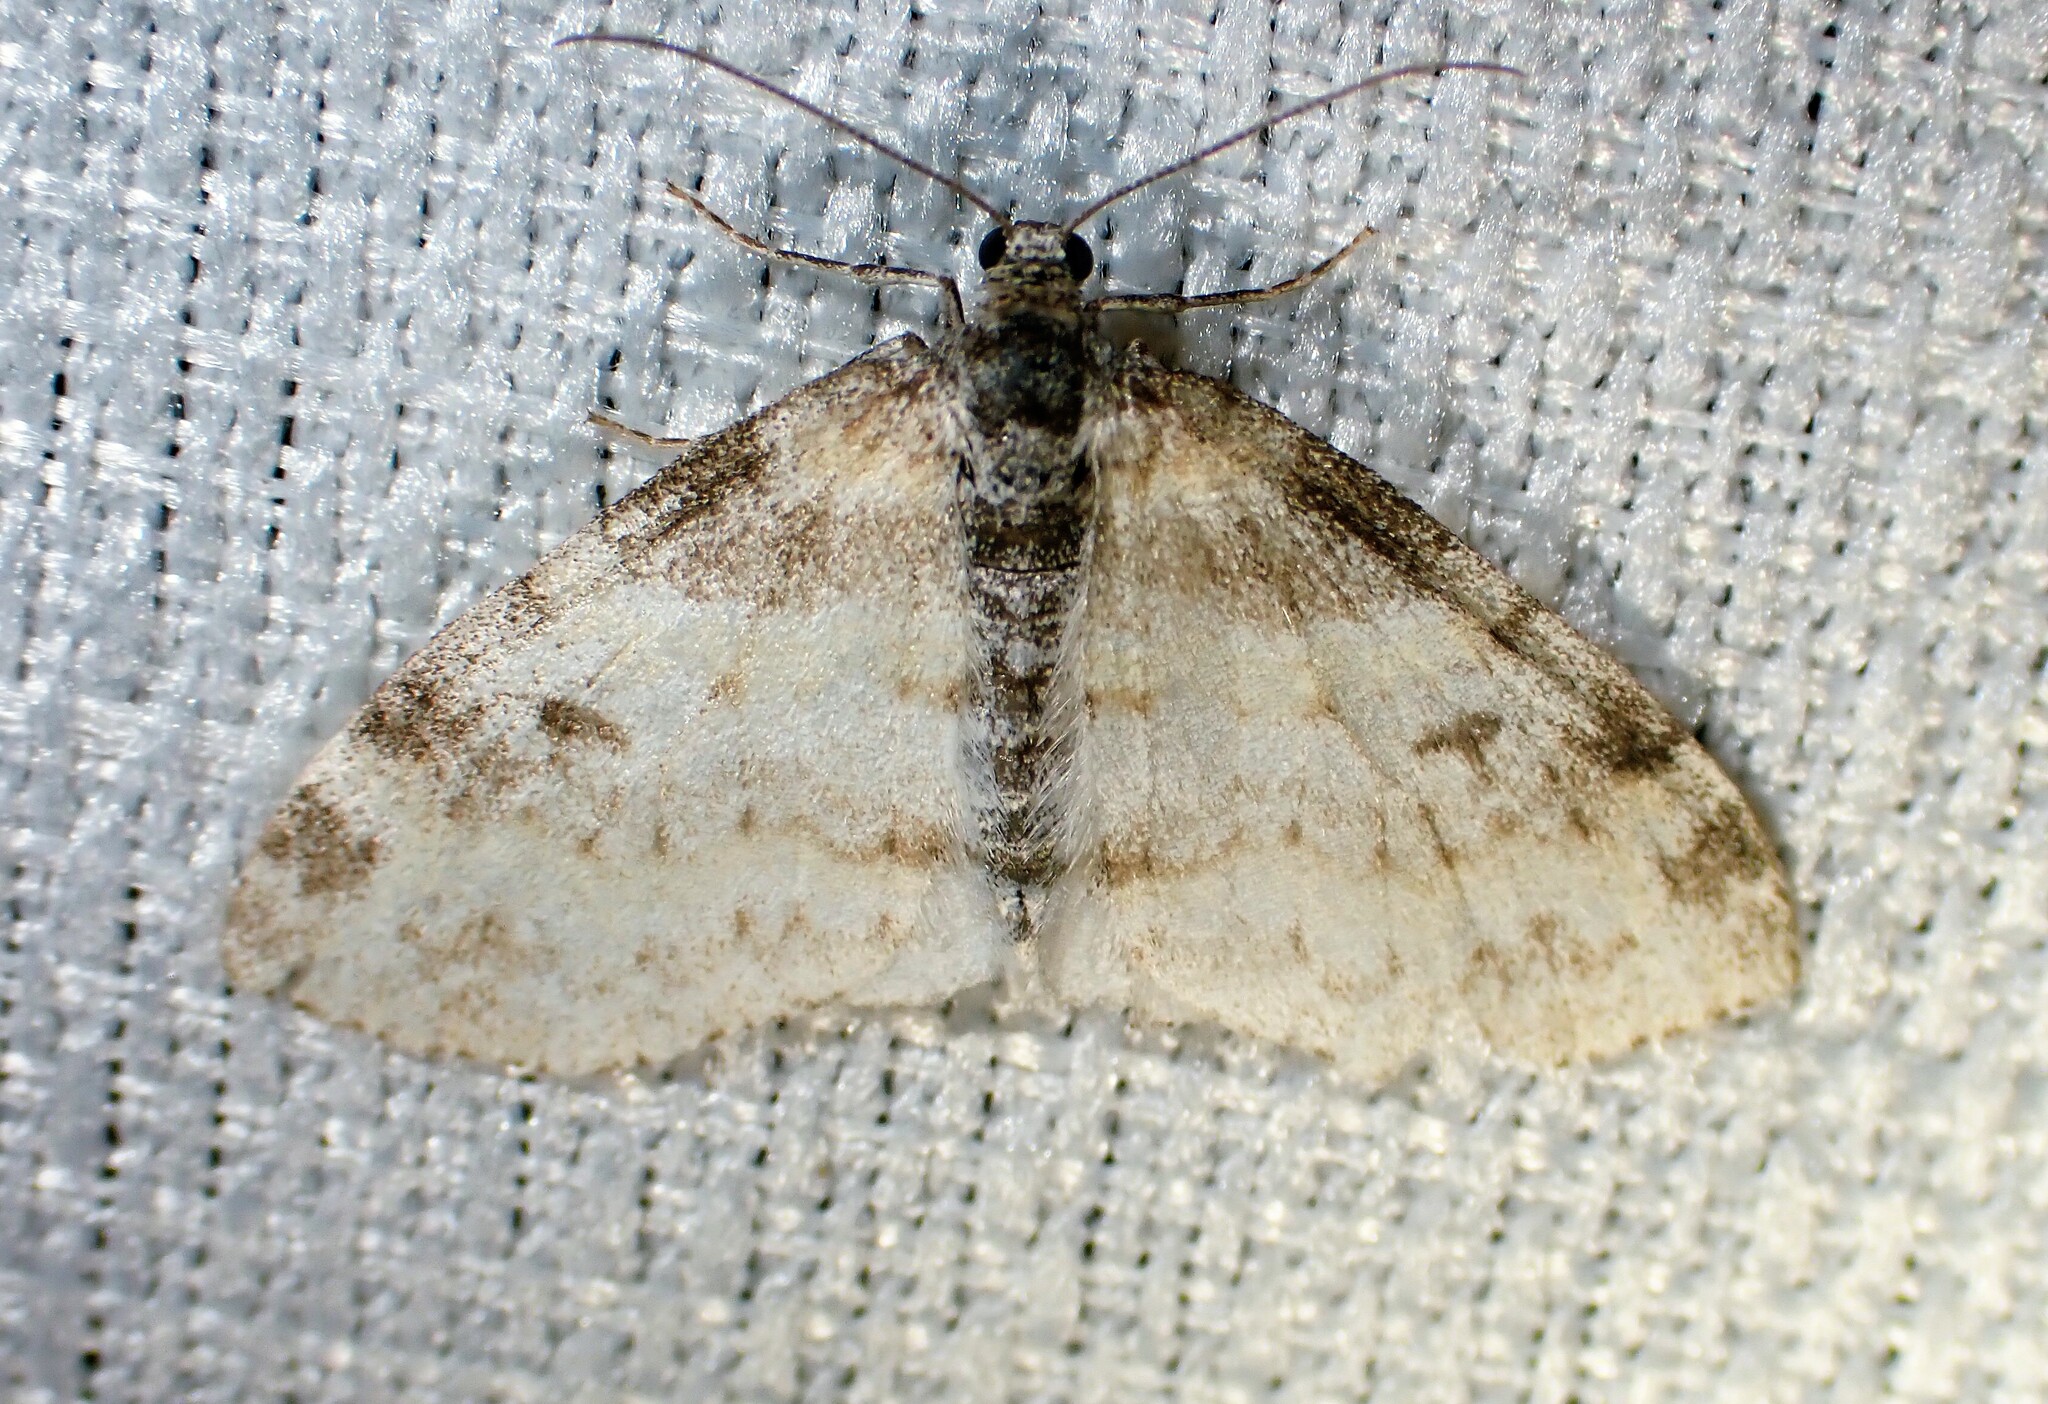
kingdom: Animalia
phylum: Arthropoda
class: Insecta
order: Lepidoptera
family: Geometridae
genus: Lobophora
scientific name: Lobophora nivigerata
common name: Powdered bigwing
